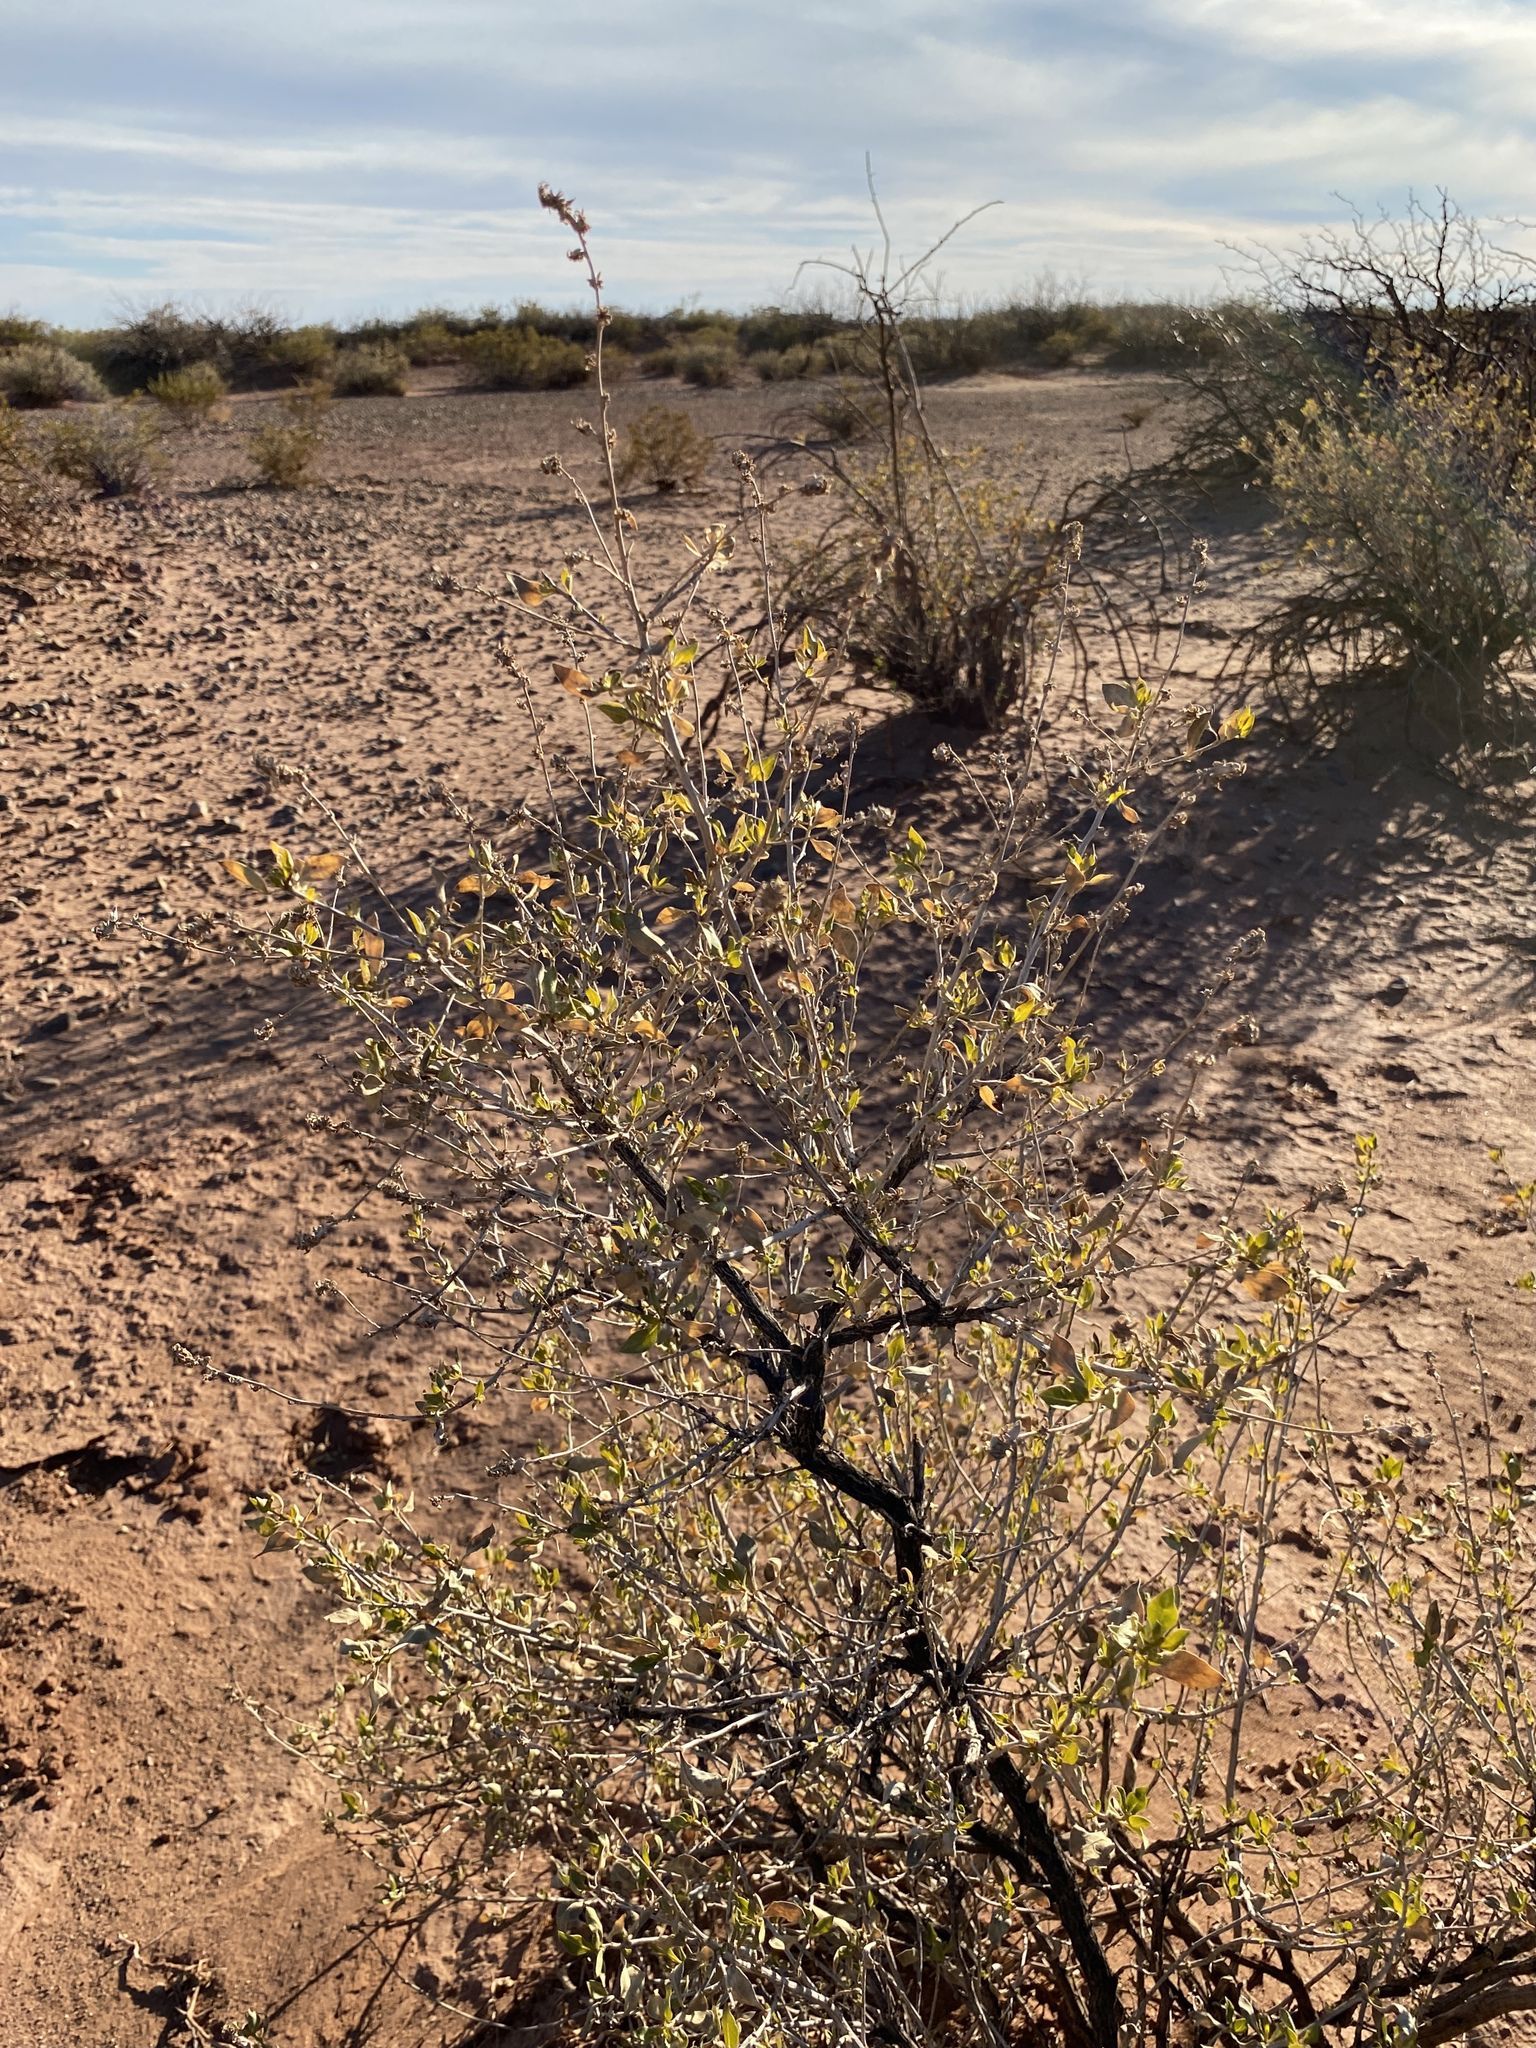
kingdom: Plantae
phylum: Tracheophyta
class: Magnoliopsida
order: Asterales
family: Asteraceae
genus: Flourensia
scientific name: Flourensia cernua
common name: Varnishbush
